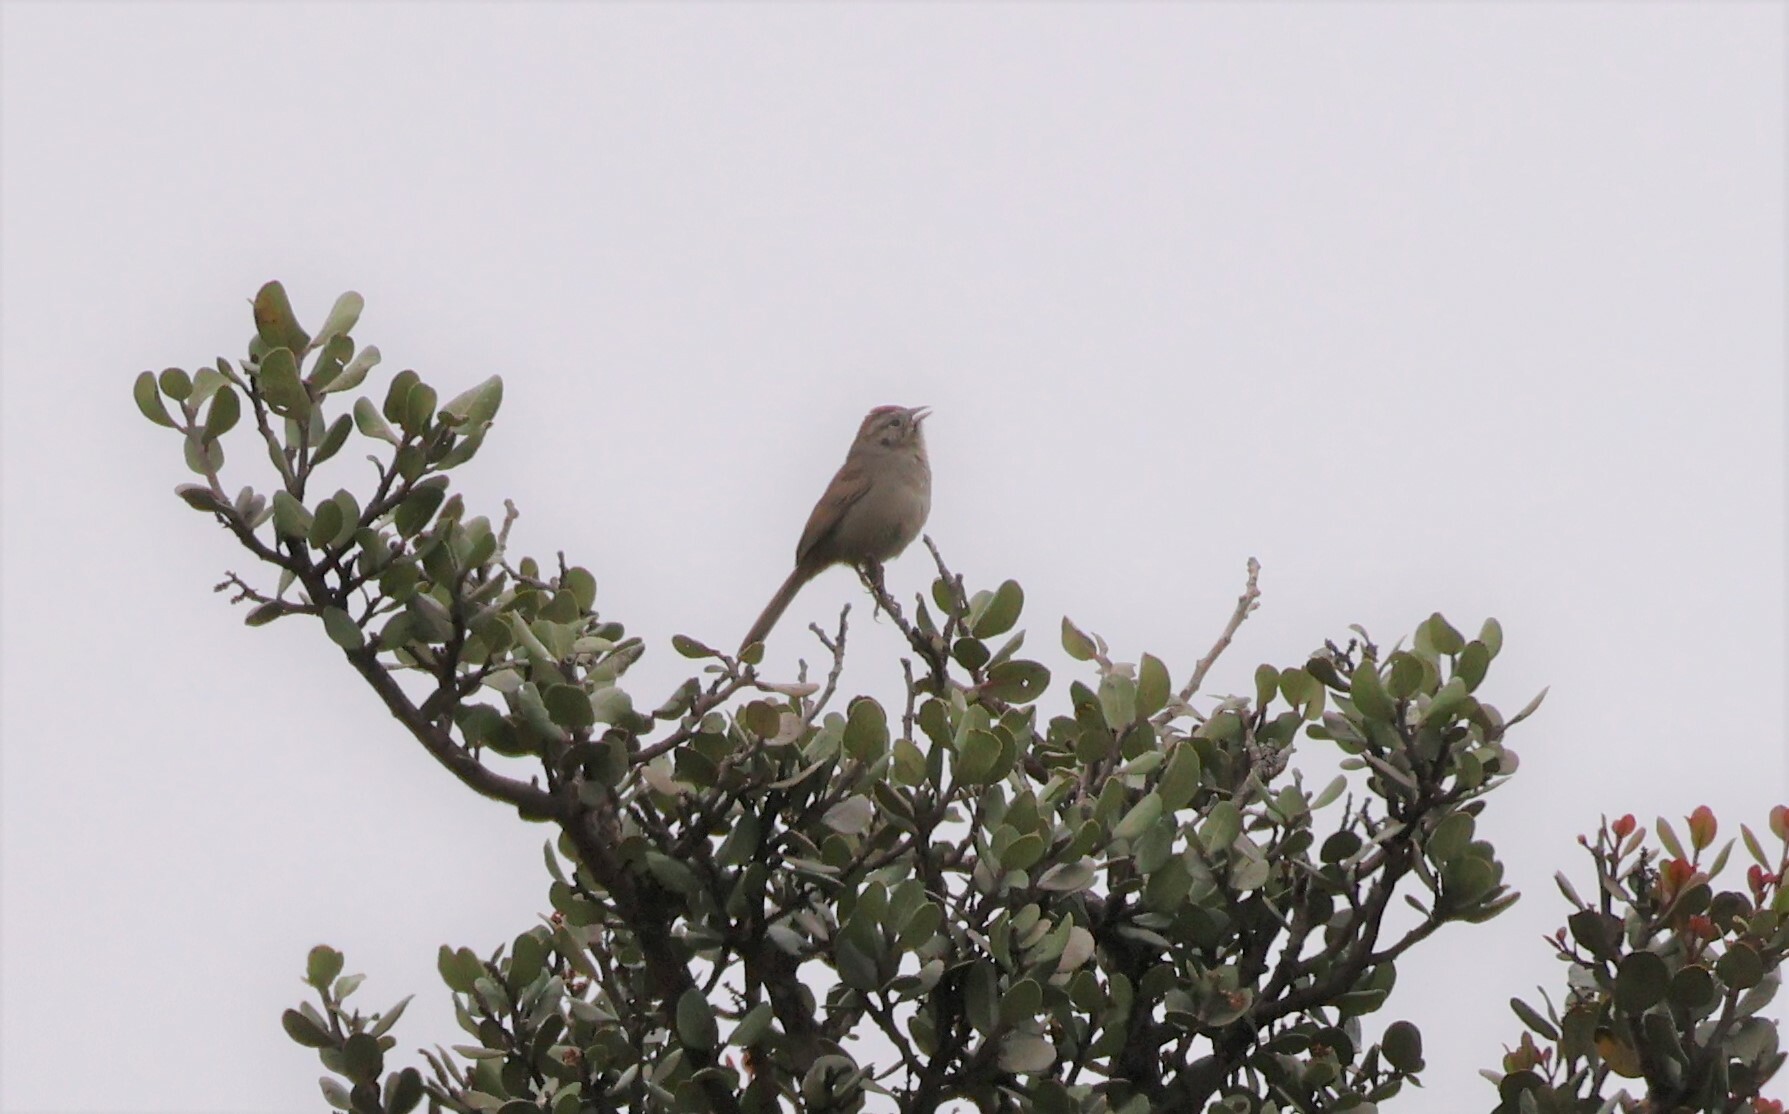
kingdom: Animalia
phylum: Chordata
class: Aves
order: Passeriformes
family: Passerellidae
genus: Aimophila
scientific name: Aimophila ruficeps
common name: Rufous-crowned sparrow
